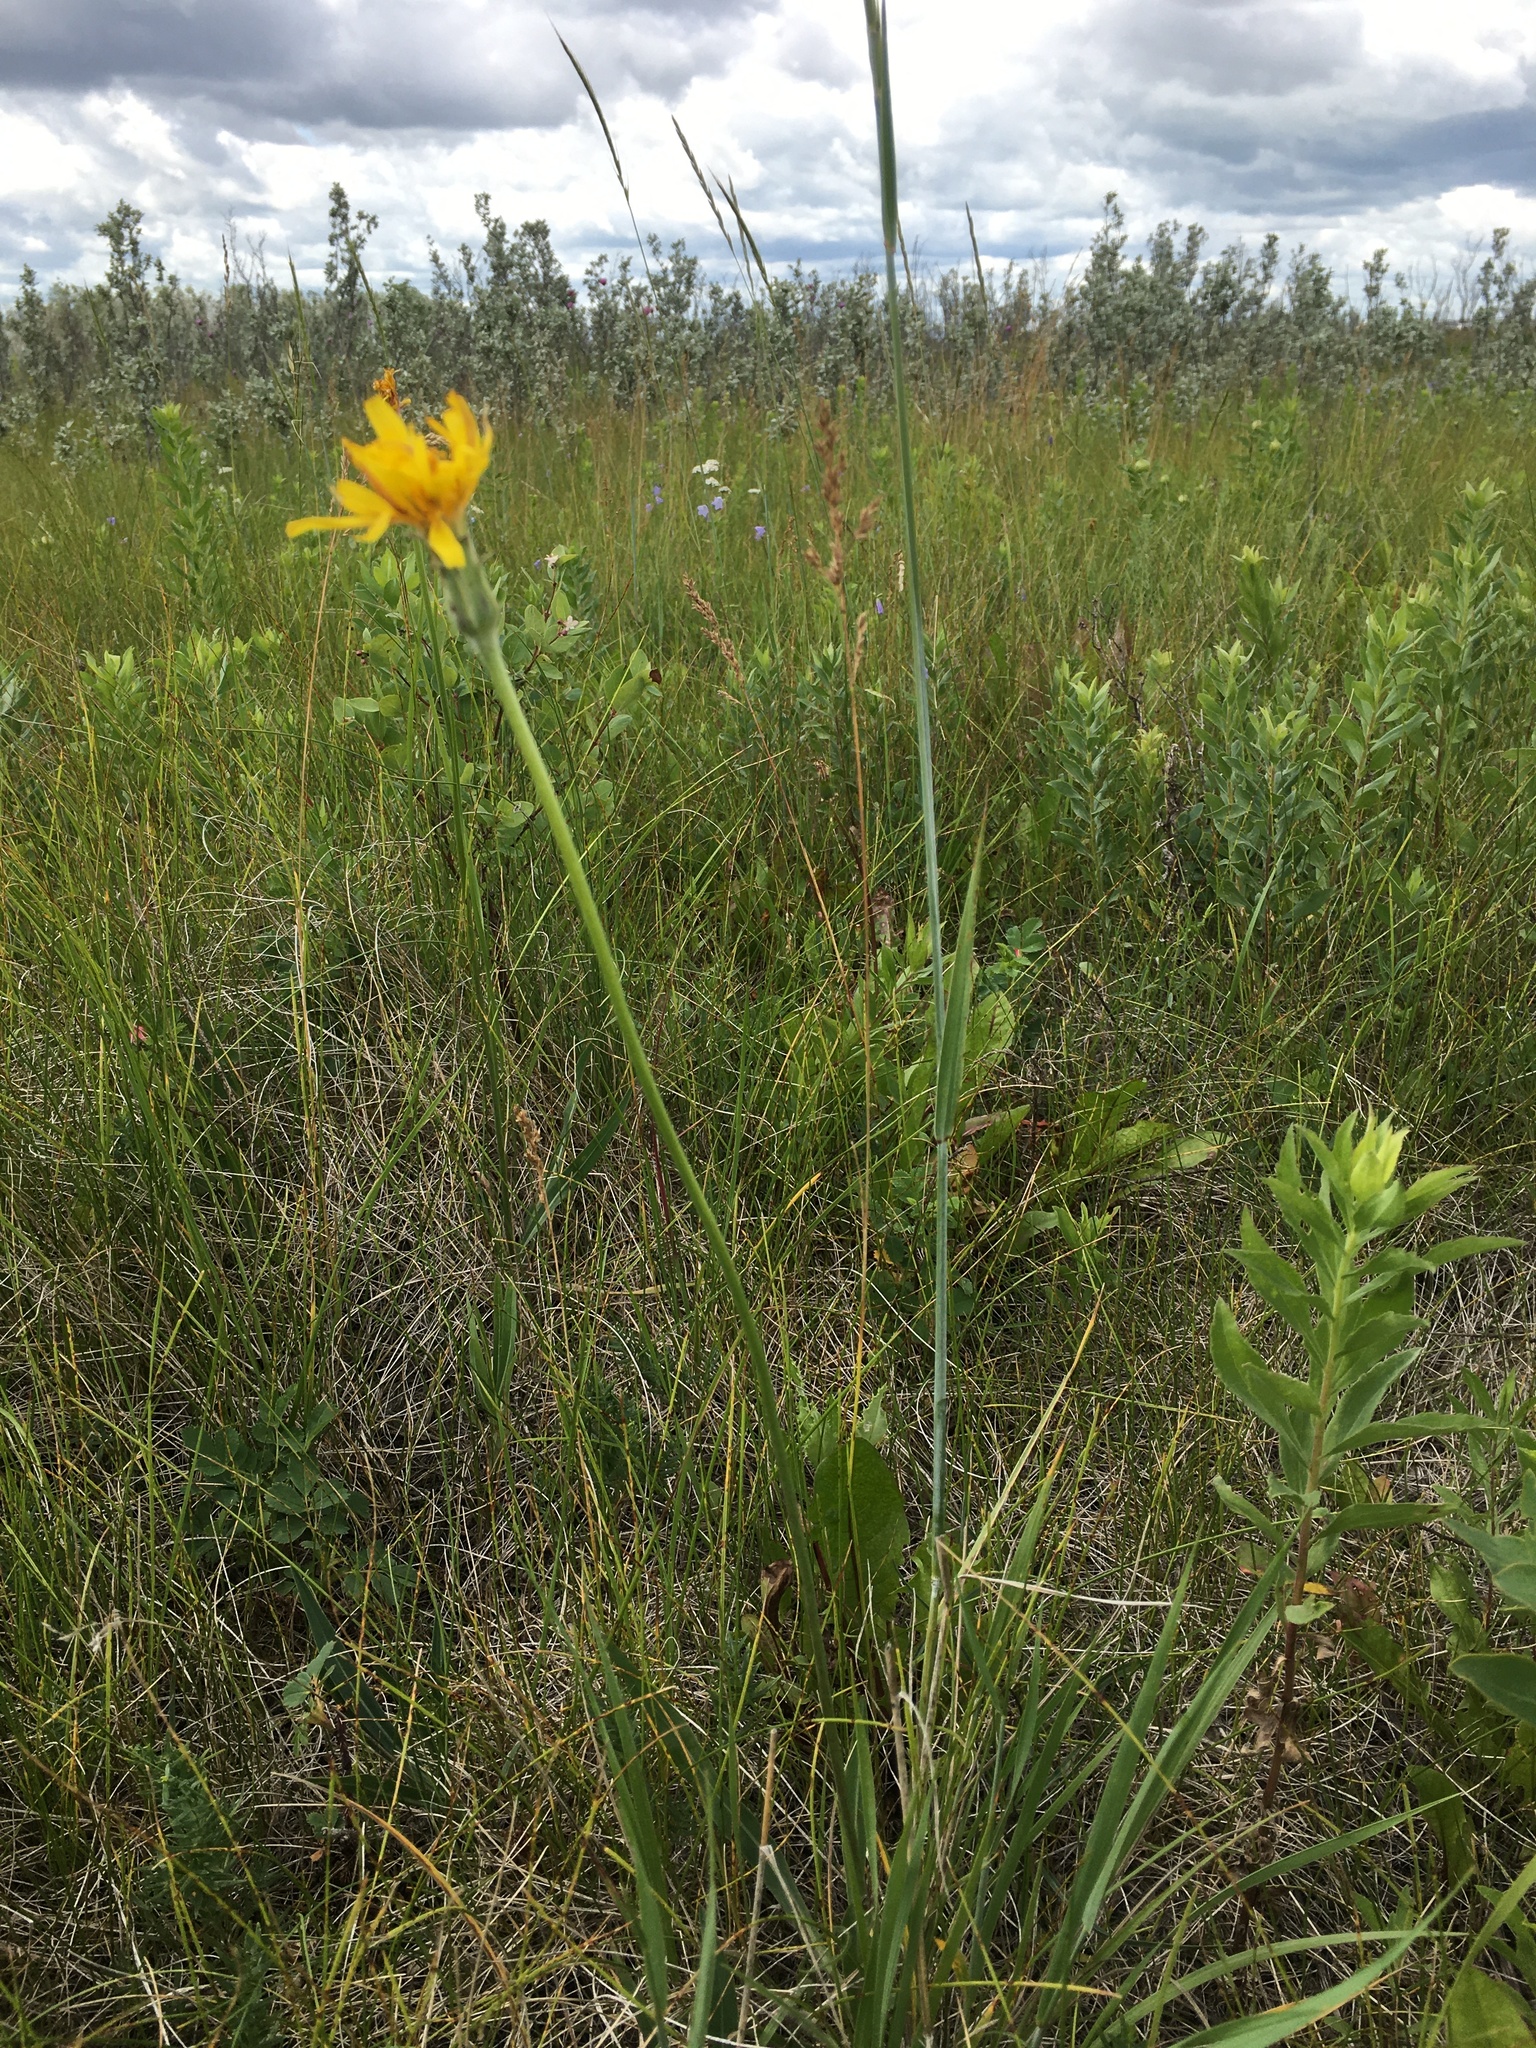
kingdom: Plantae
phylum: Tracheophyta
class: Magnoliopsida
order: Asterales
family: Asteraceae
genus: Agoseris
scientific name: Agoseris glauca
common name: Prairie agoseris
